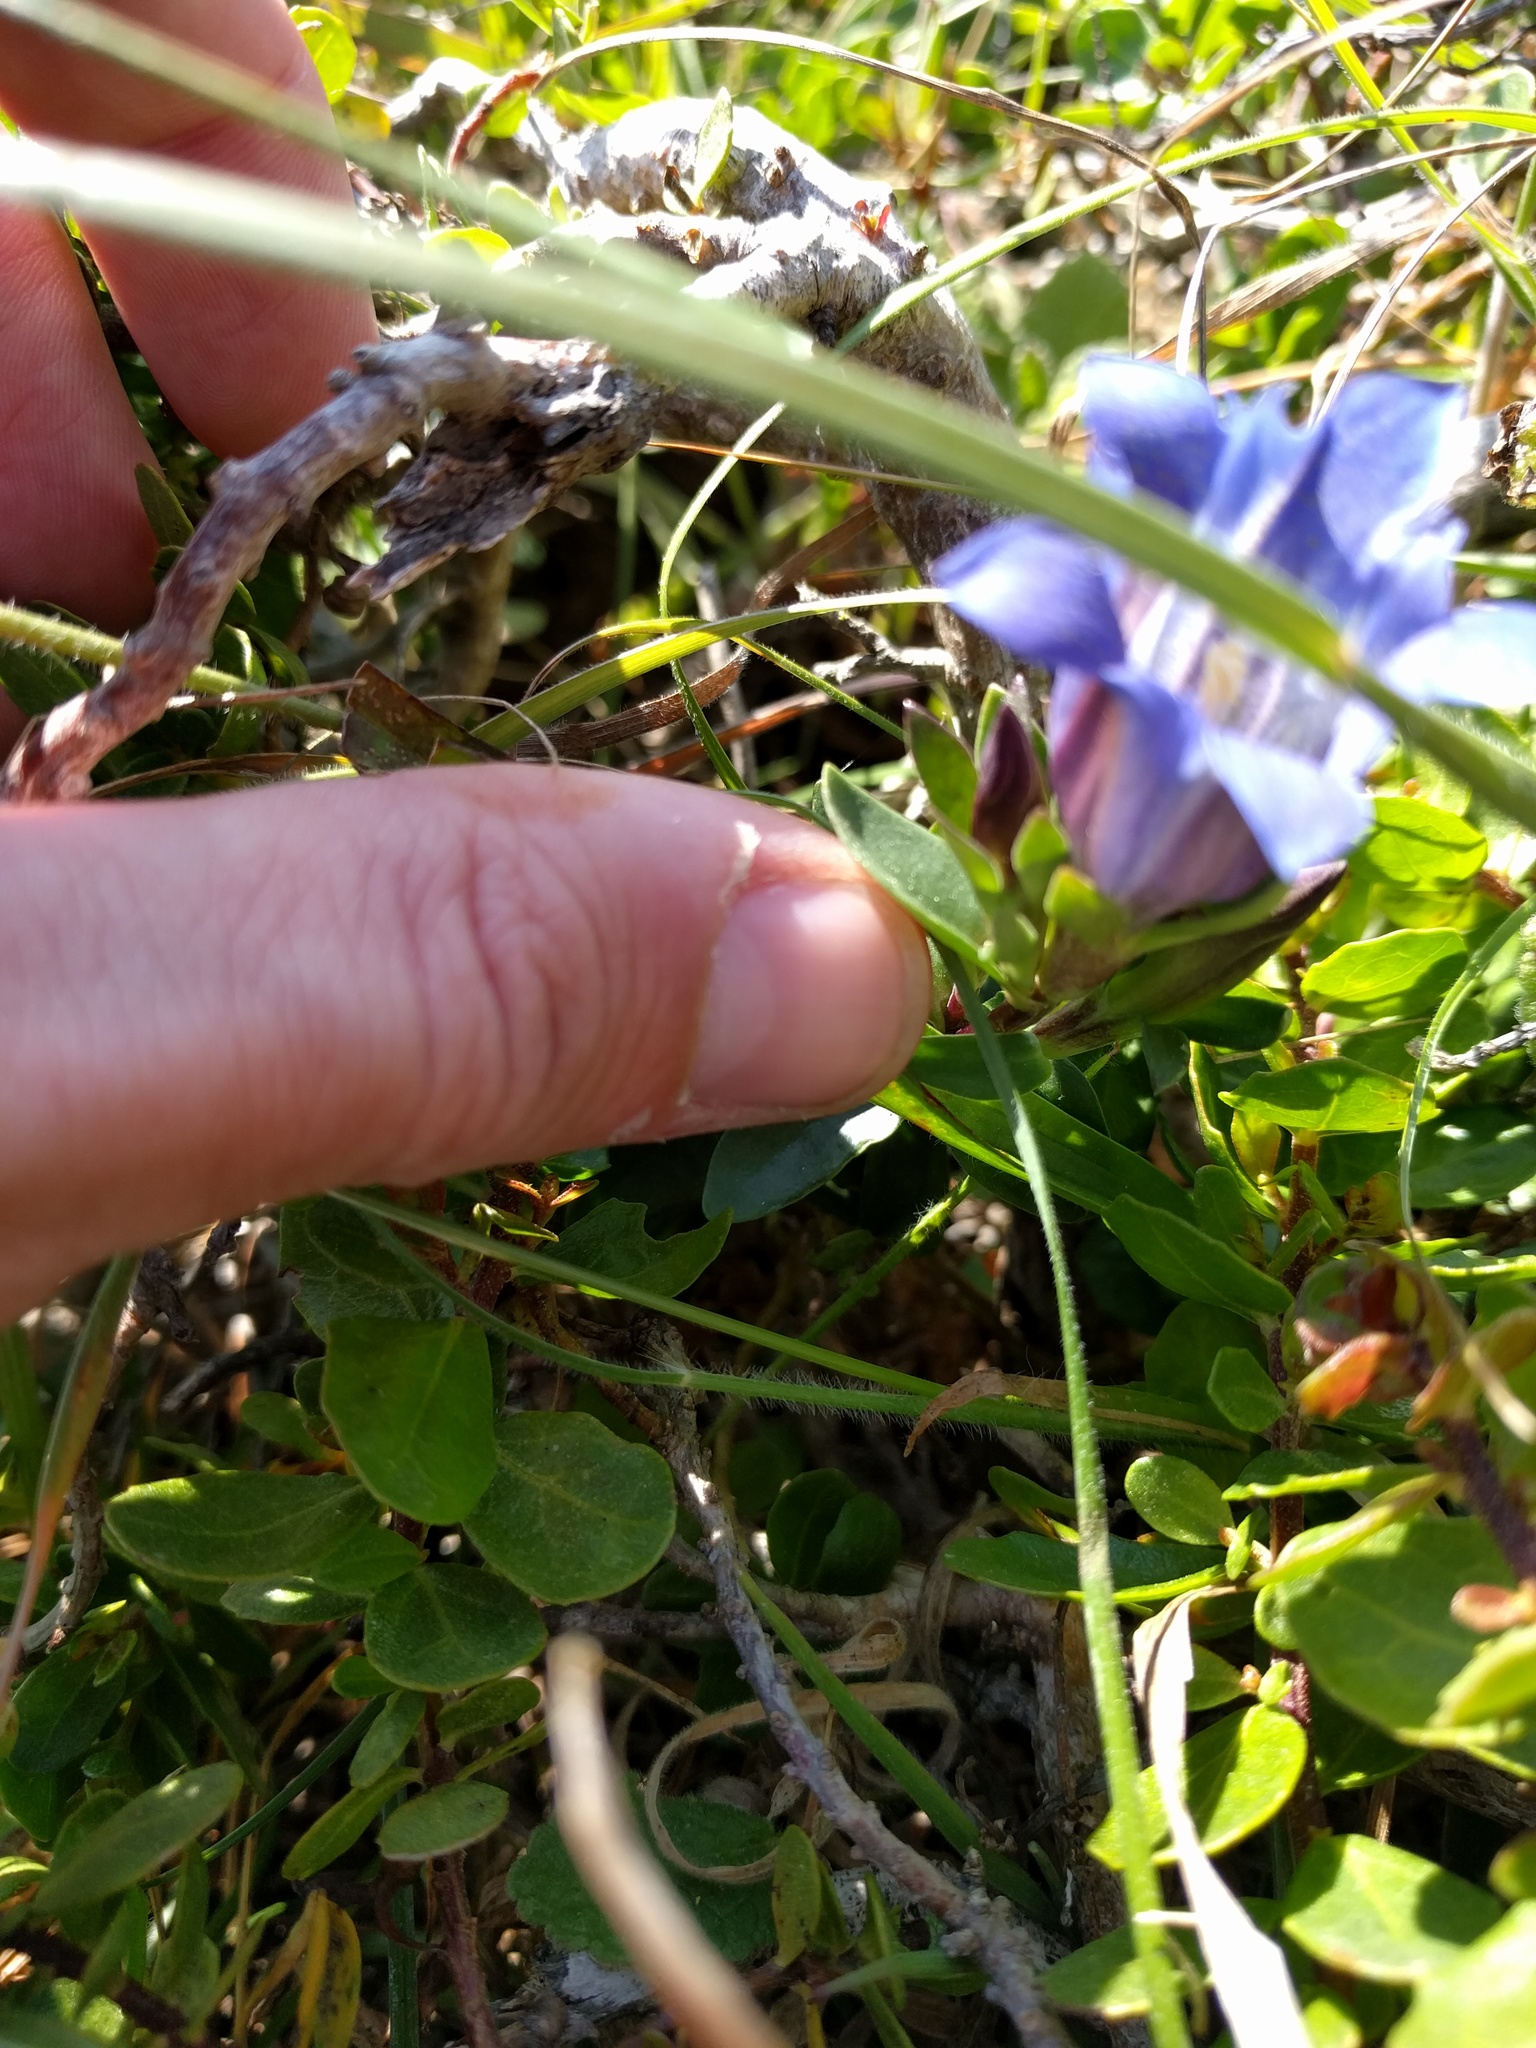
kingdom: Plantae
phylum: Tracheophyta
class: Magnoliopsida
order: Gentianales
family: Gentianaceae
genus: Gentiana
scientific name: Gentiana affinis
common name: Rocky mountain gentian
